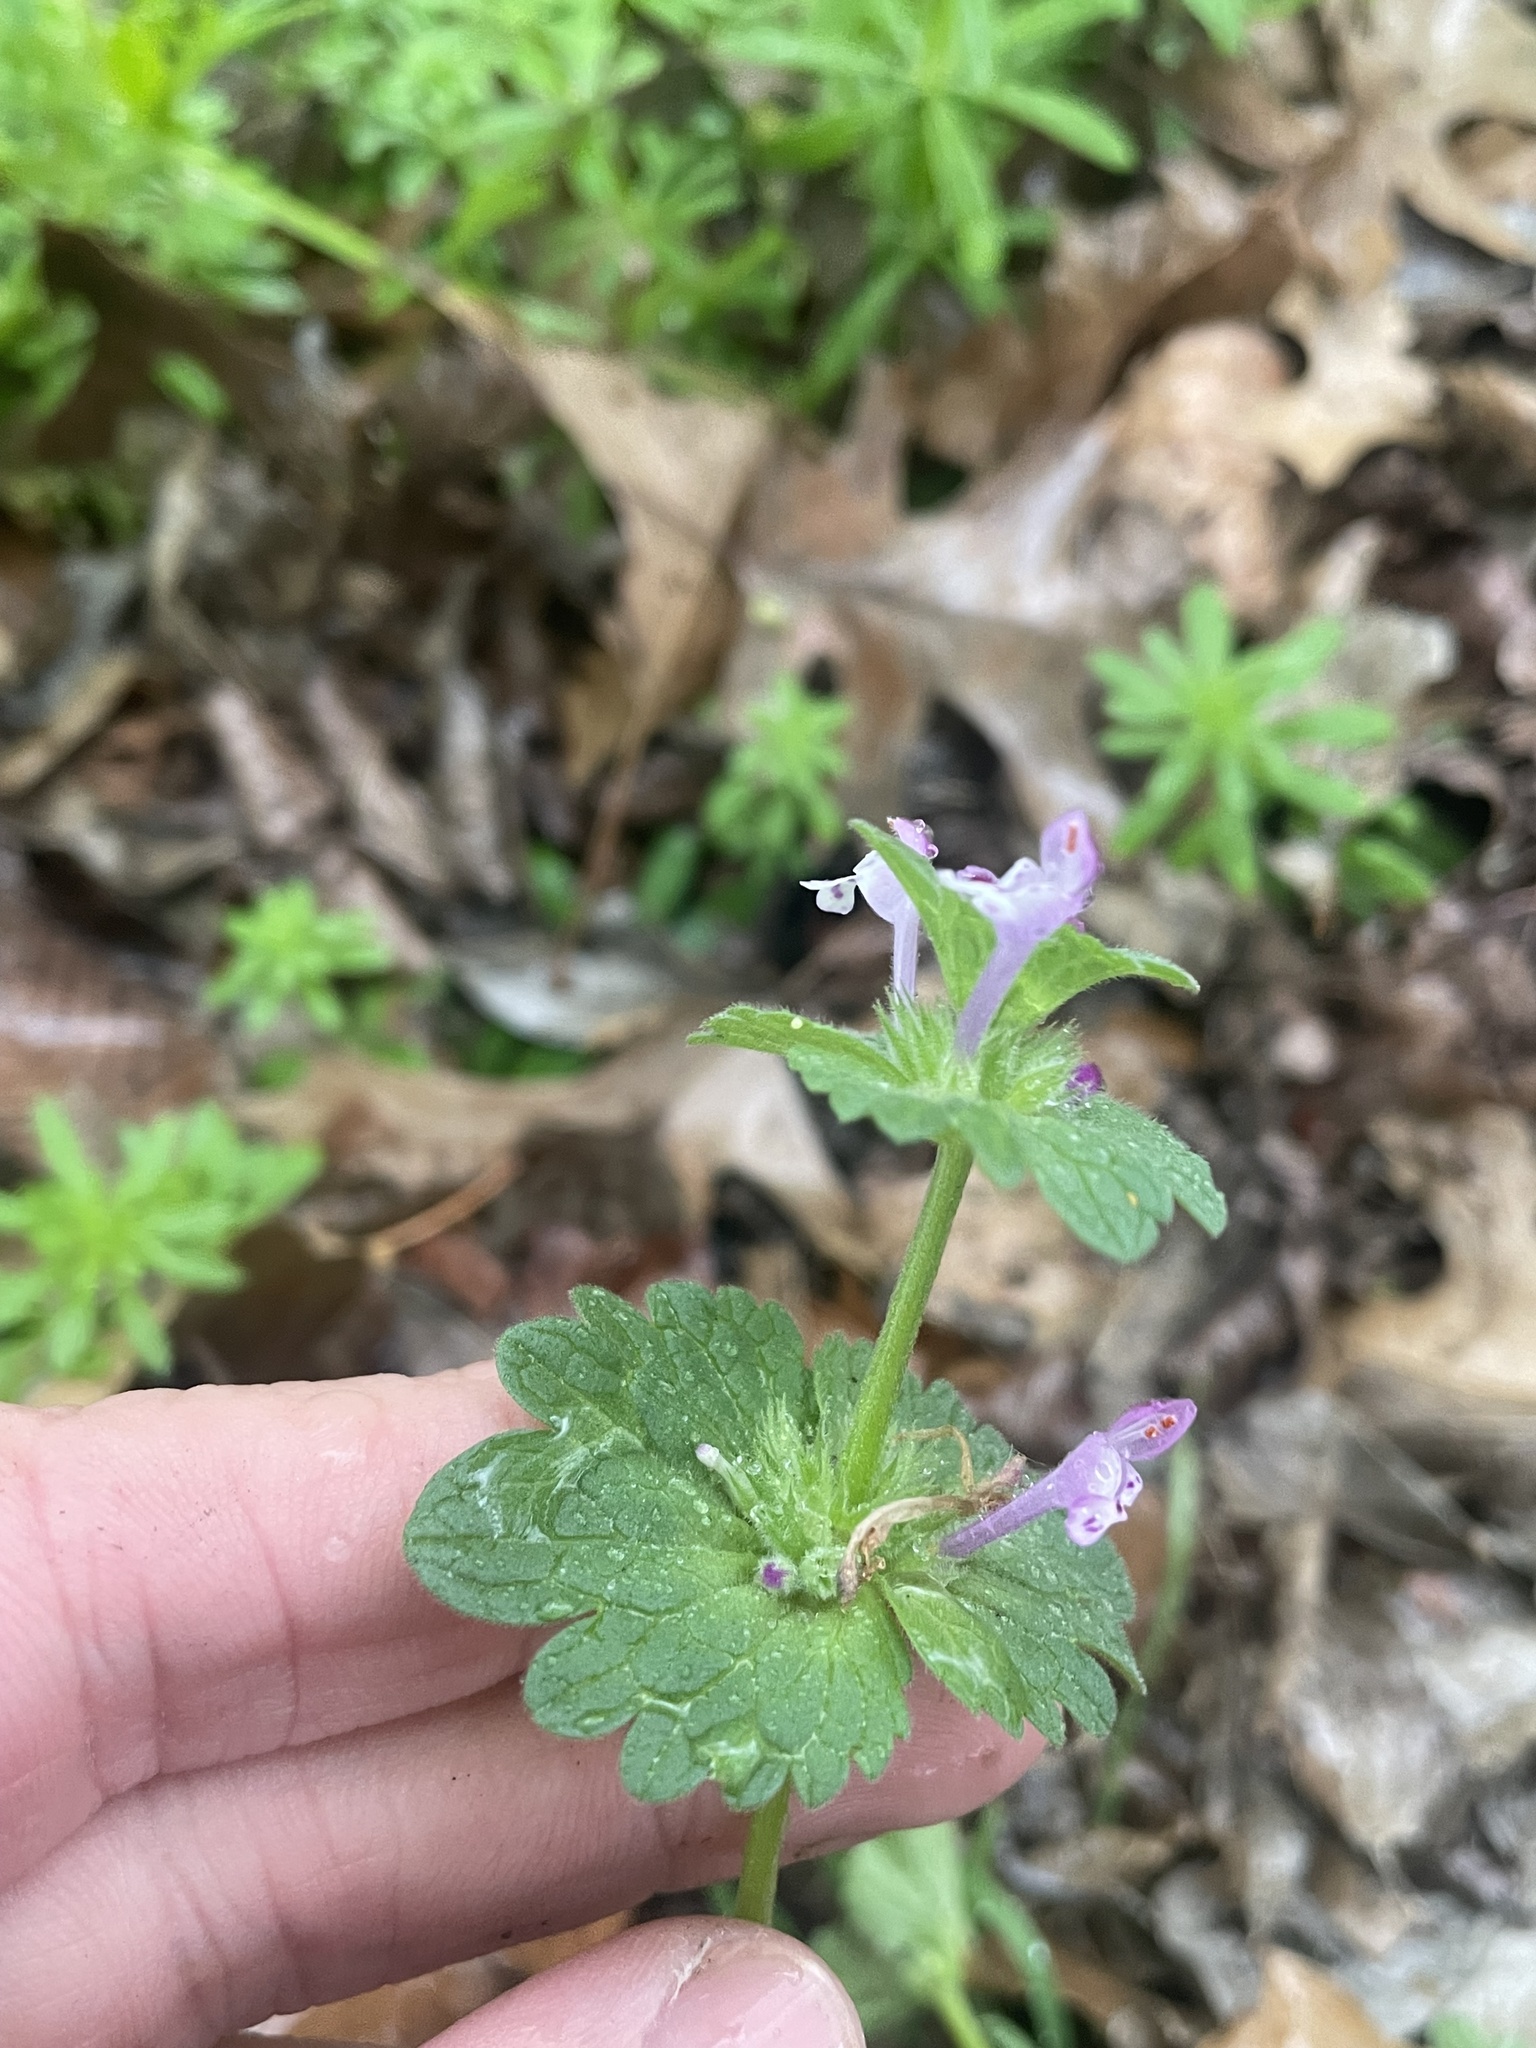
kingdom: Plantae
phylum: Tracheophyta
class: Magnoliopsida
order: Lamiales
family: Lamiaceae
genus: Lamium
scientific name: Lamium amplexicaule
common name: Henbit dead-nettle
